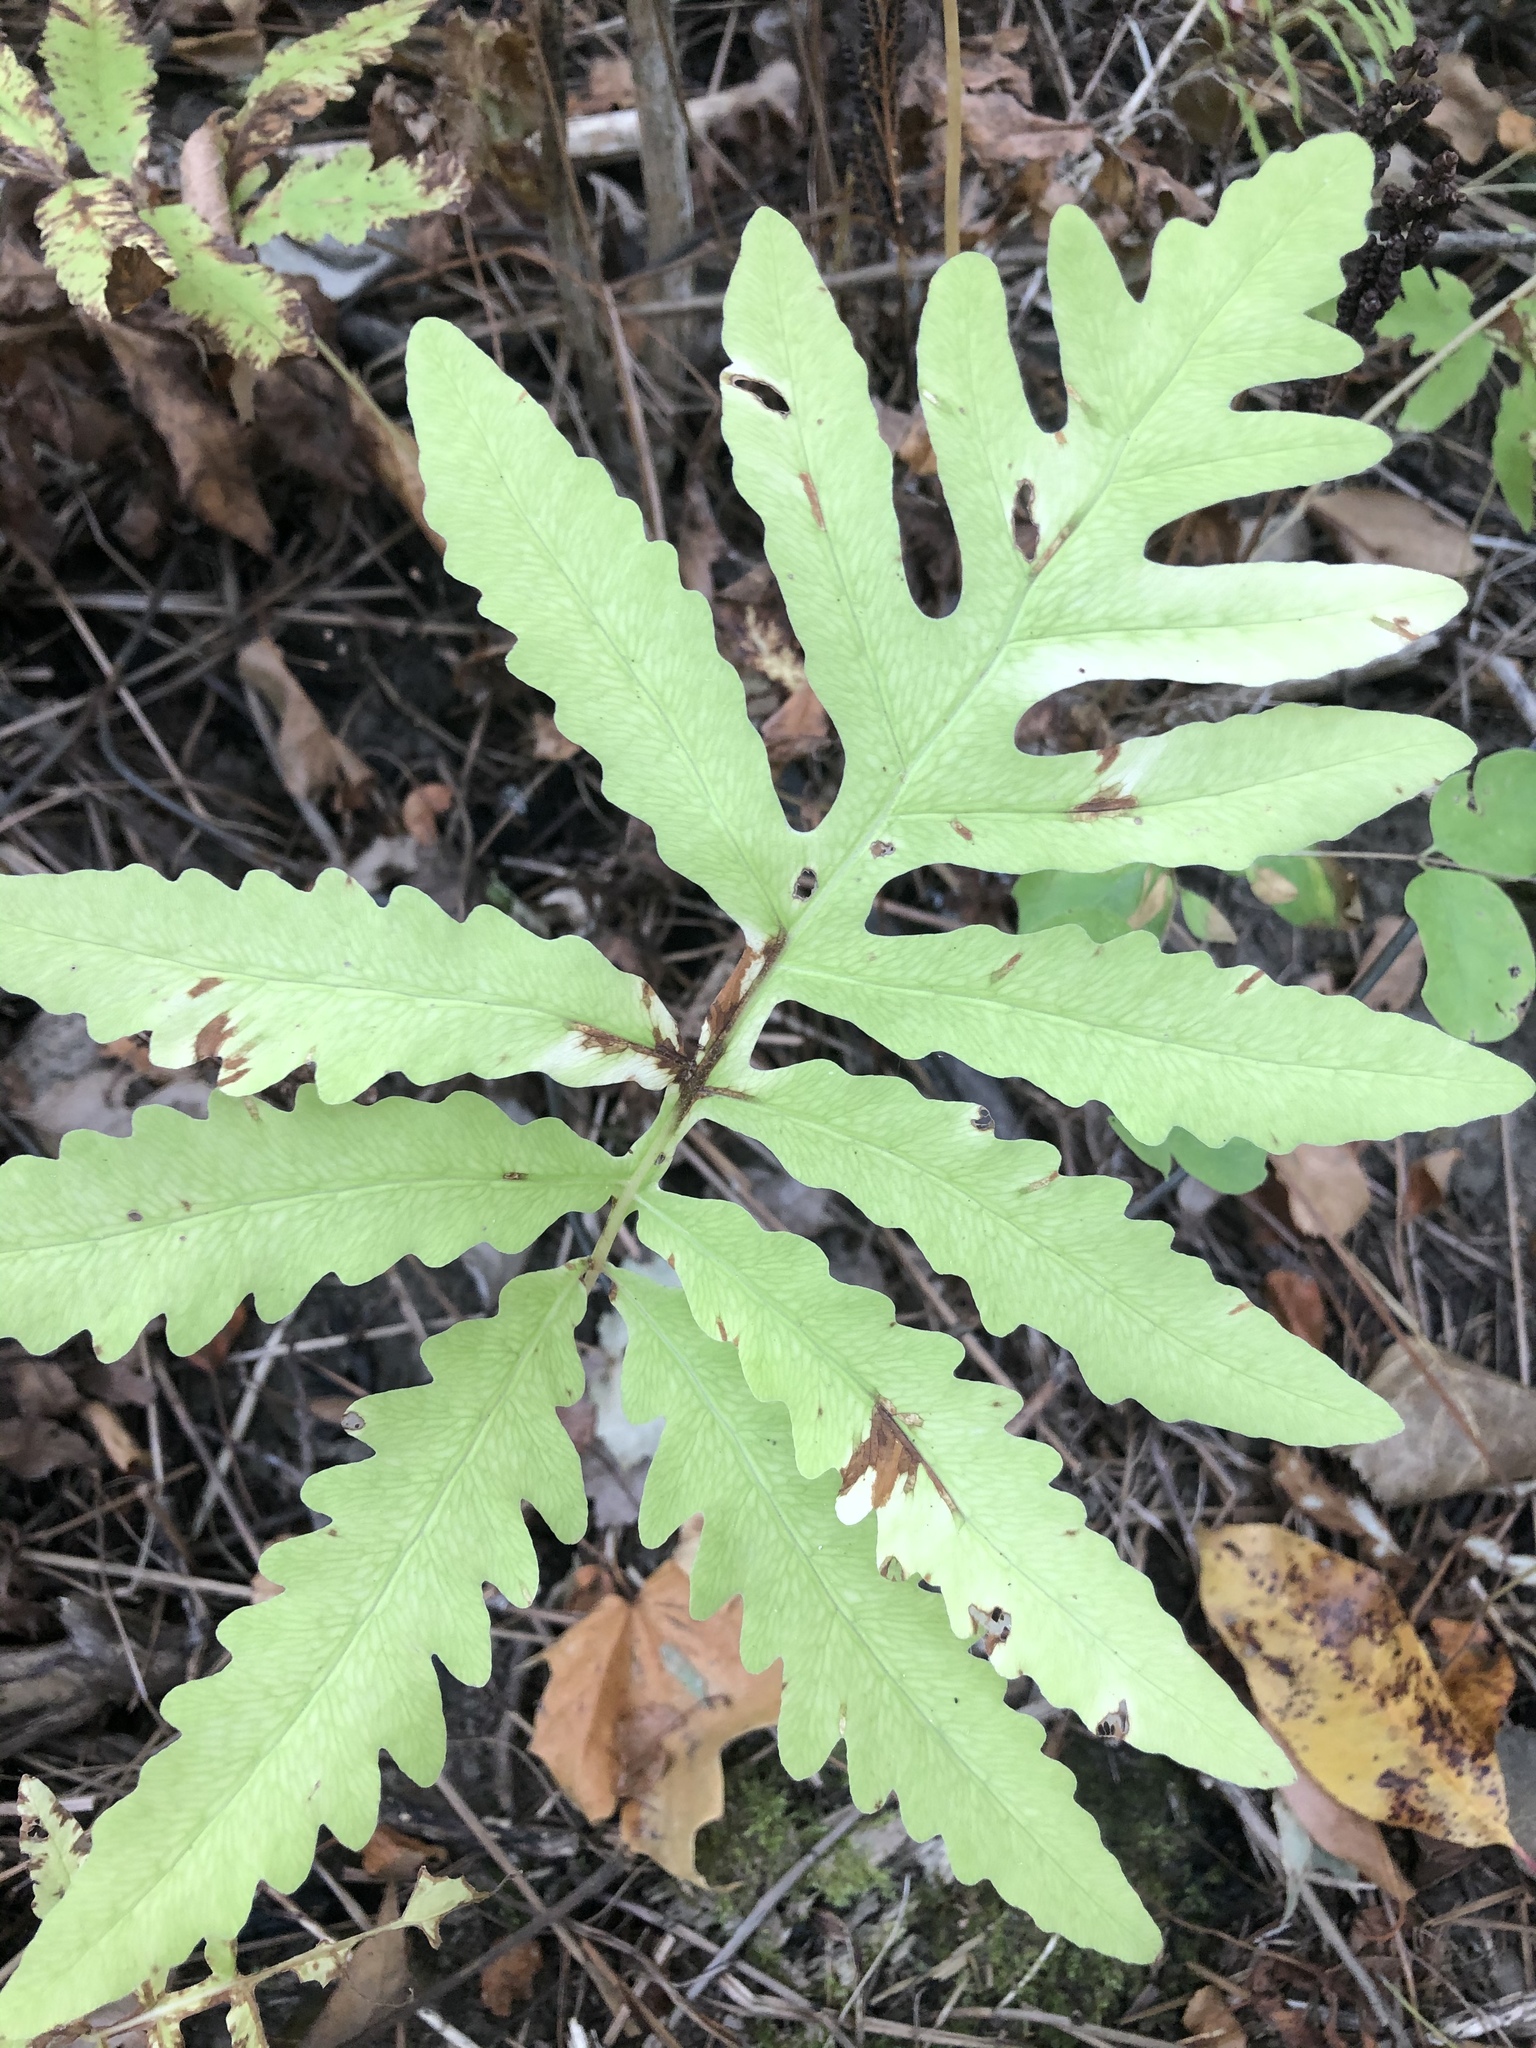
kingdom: Plantae
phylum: Tracheophyta
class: Polypodiopsida
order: Polypodiales
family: Onocleaceae
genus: Onoclea
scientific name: Onoclea sensibilis
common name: Sensitive fern
